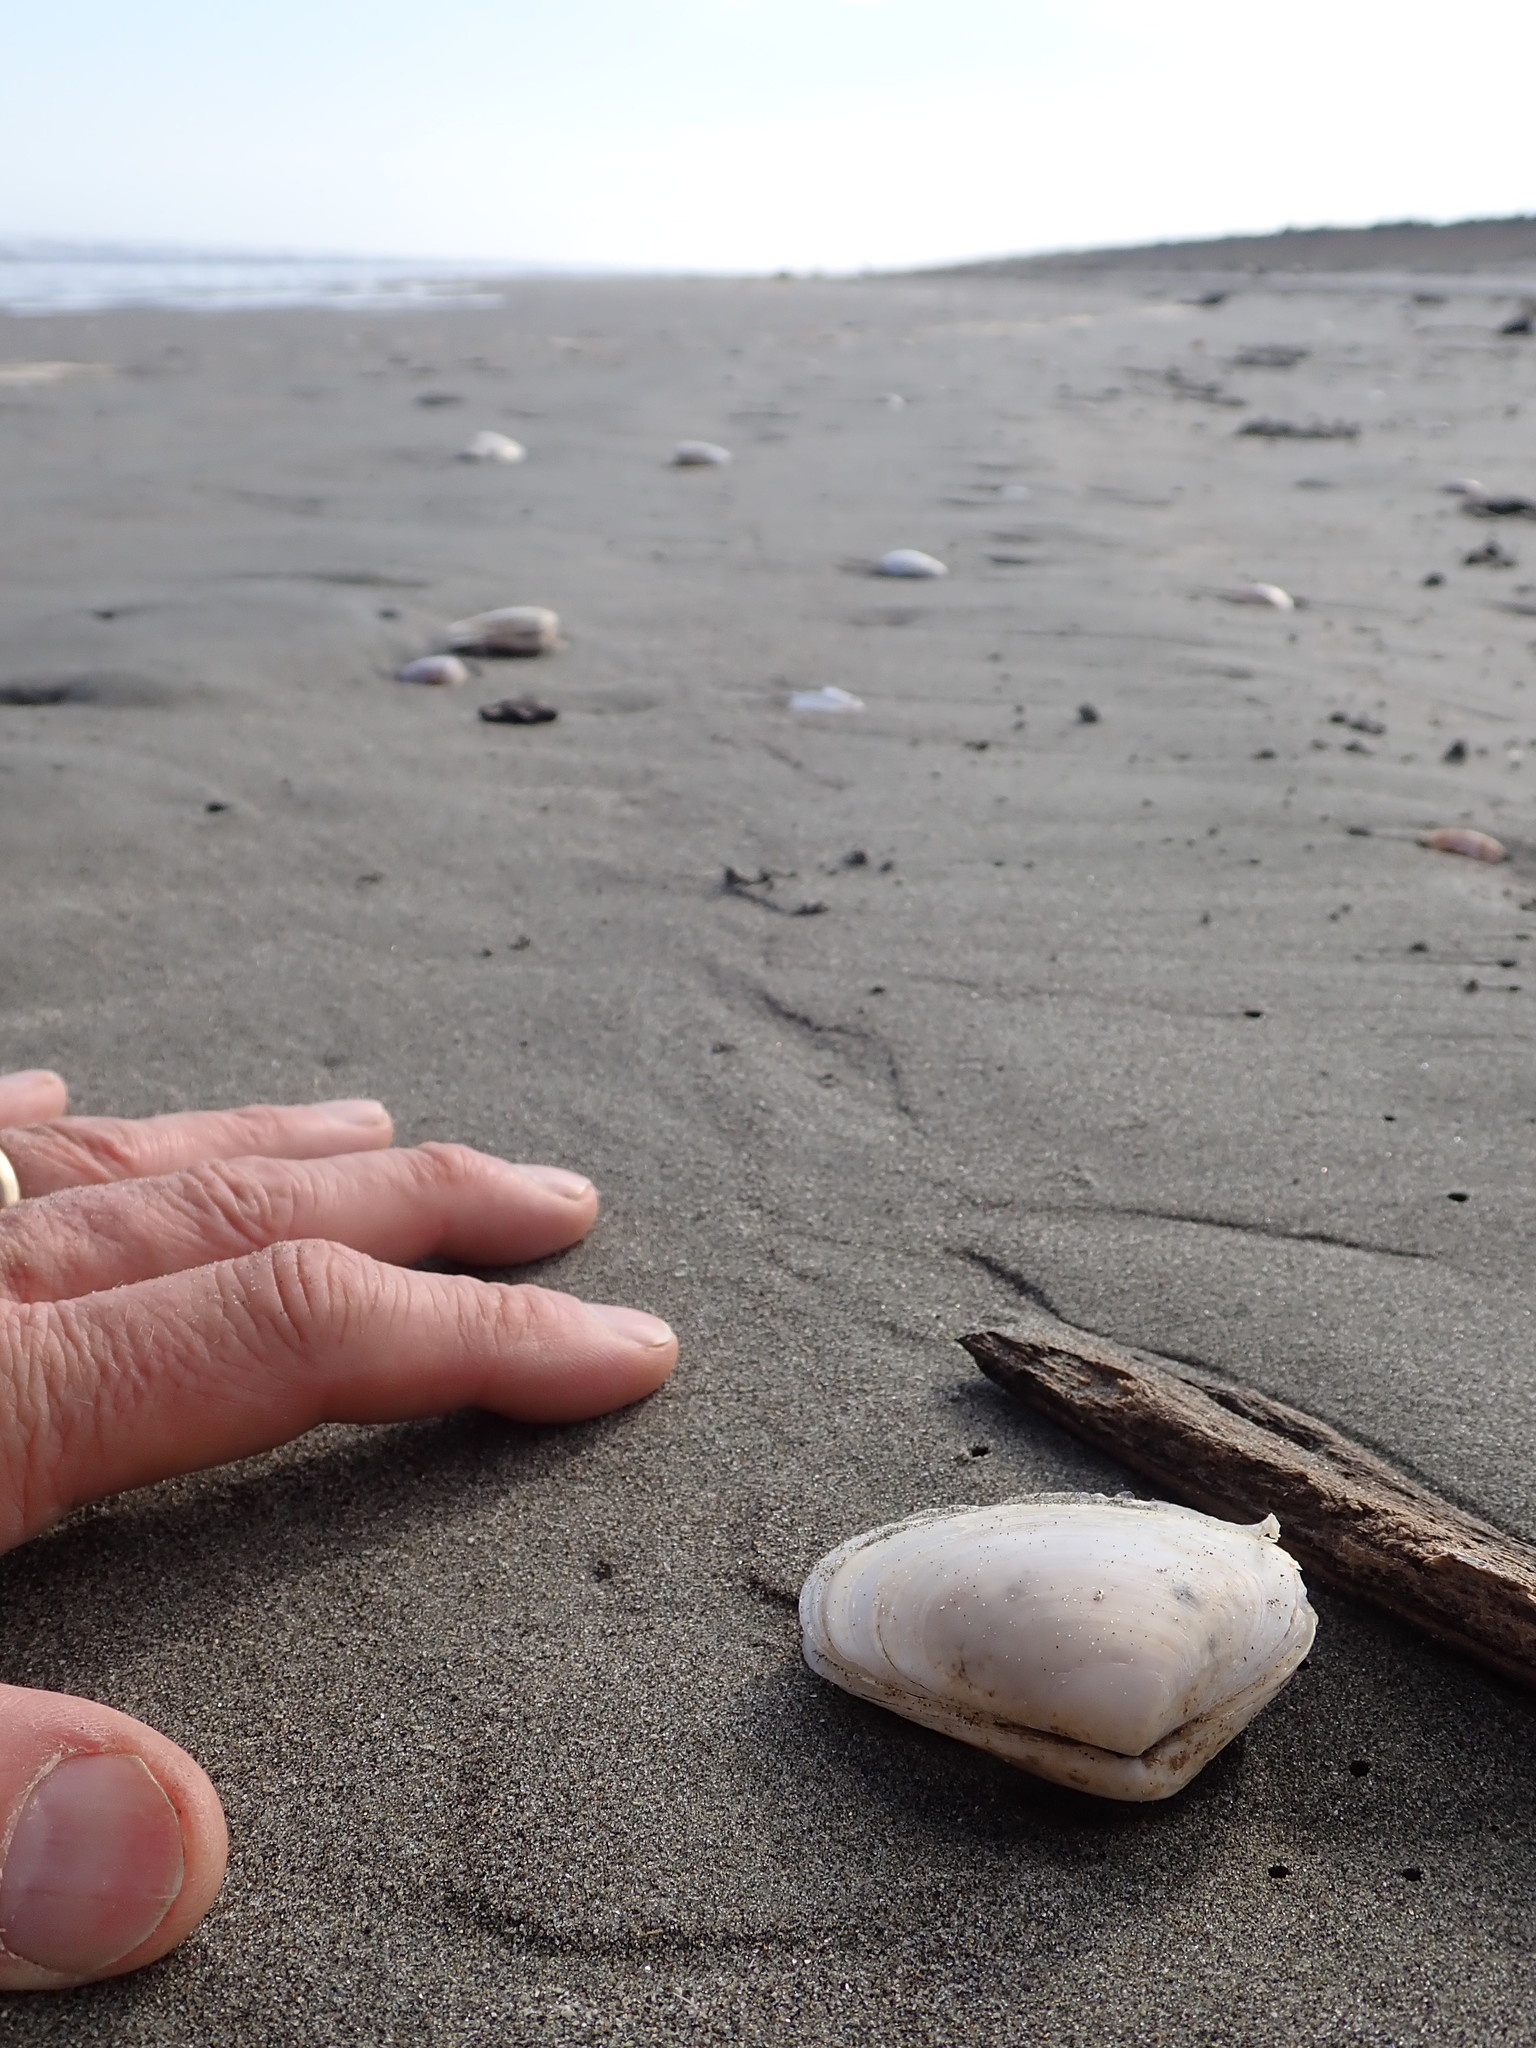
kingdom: Animalia
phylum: Mollusca
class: Bivalvia
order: Venerida
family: Mesodesmatidae
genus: Paphies
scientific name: Paphies donacina
